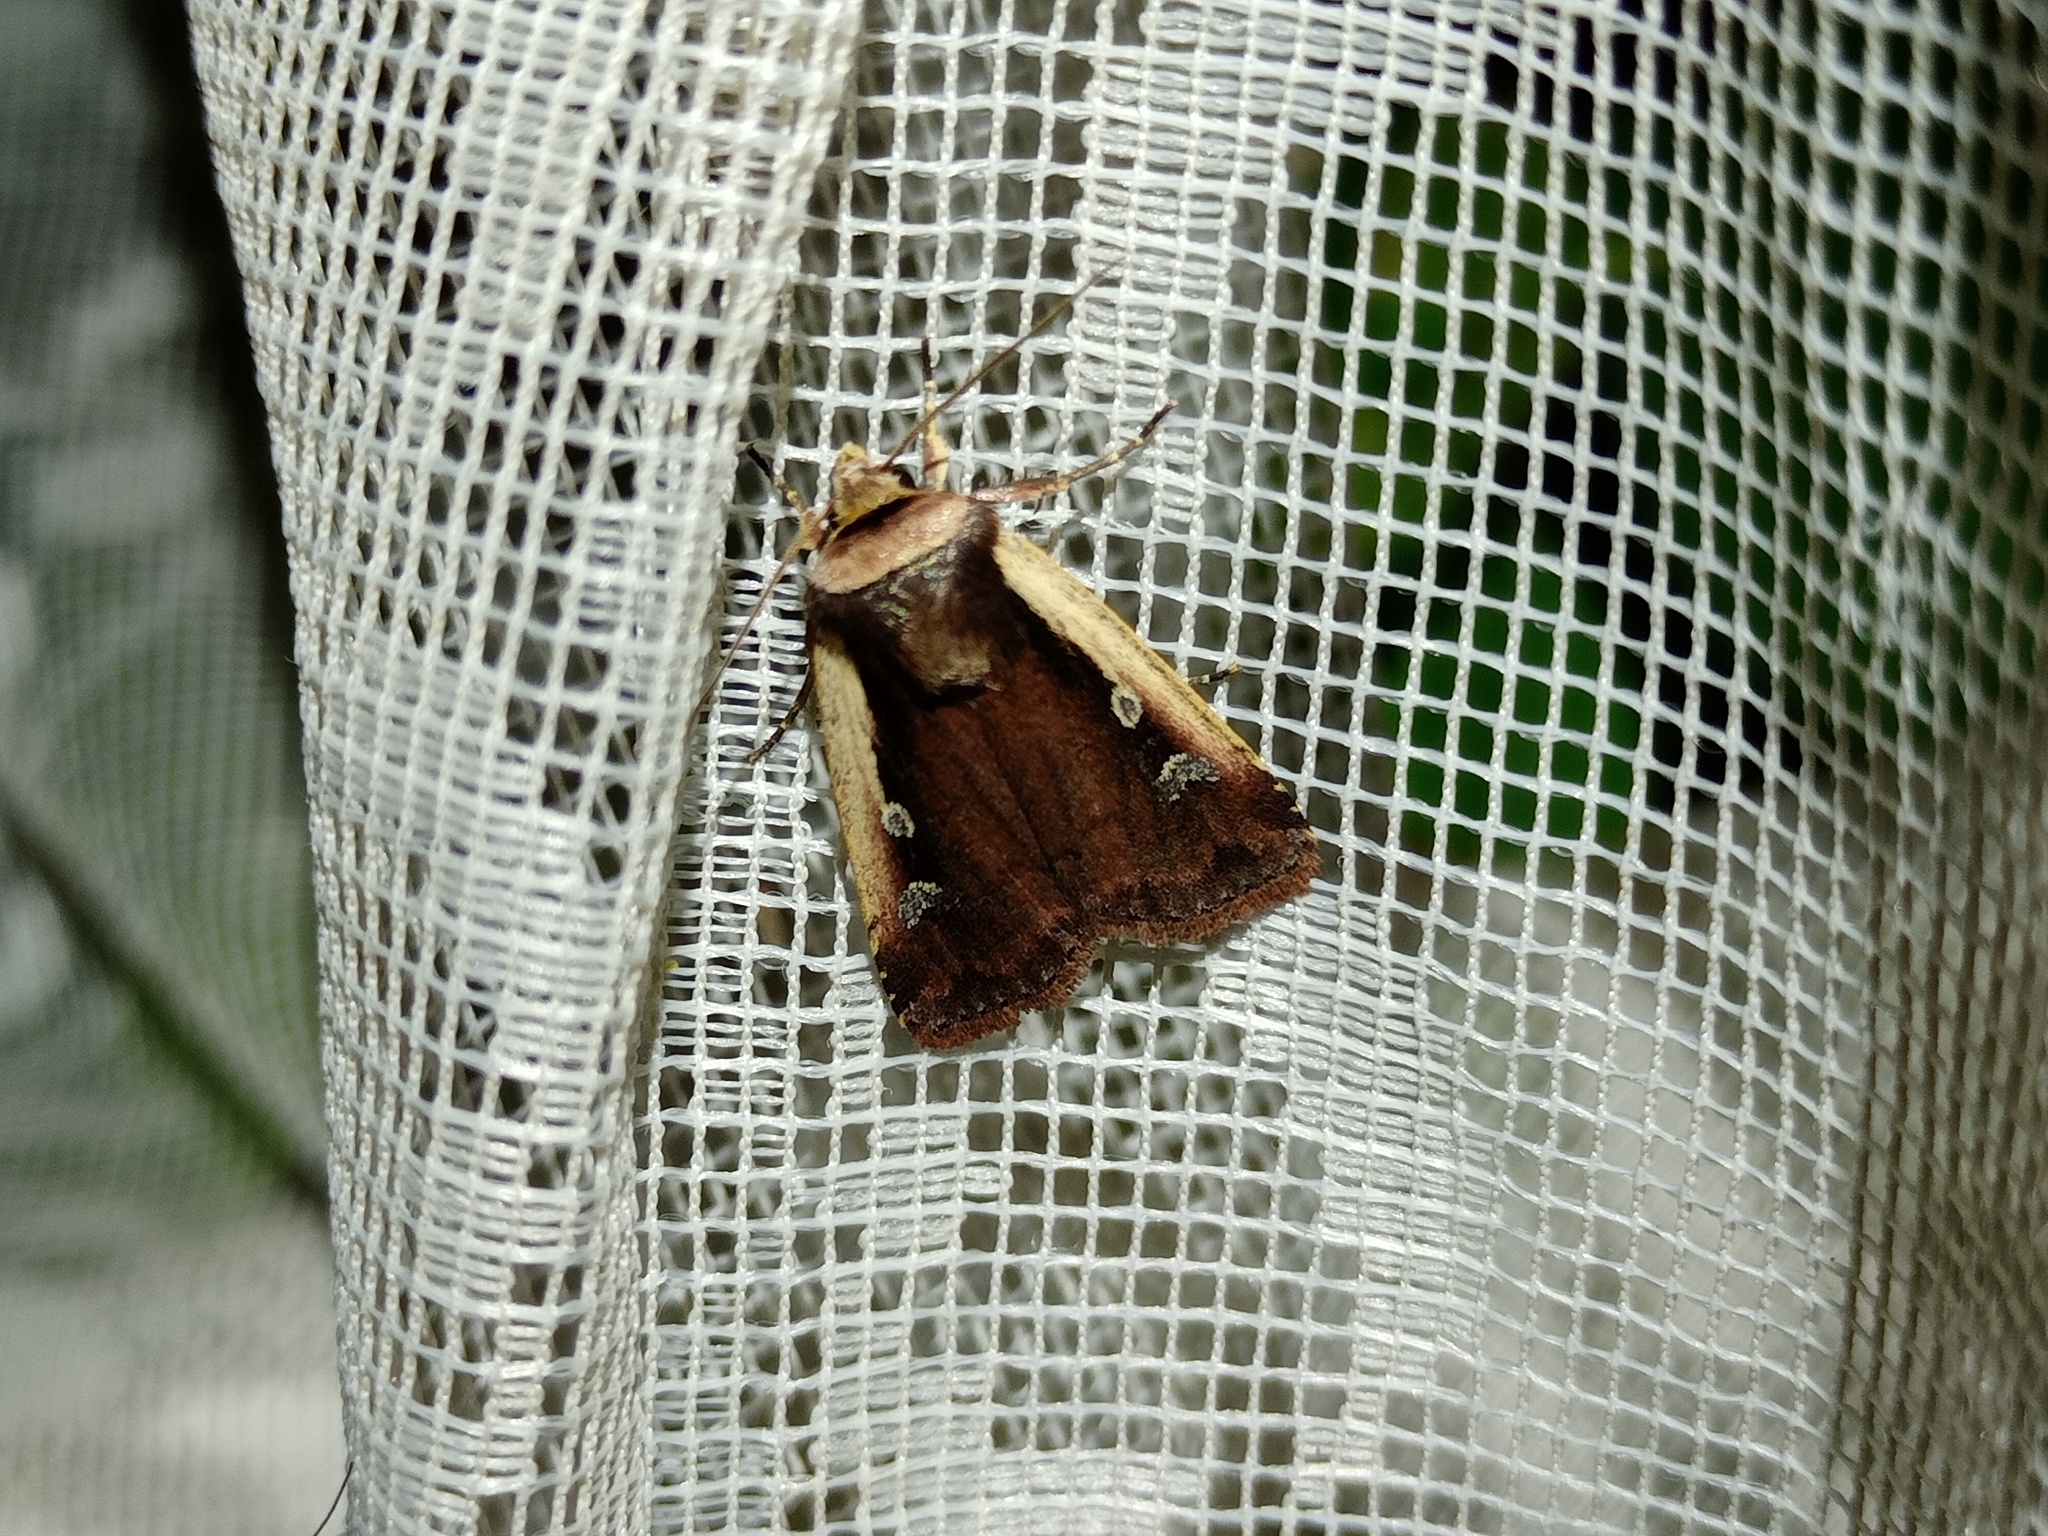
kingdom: Animalia
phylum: Arthropoda
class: Insecta
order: Lepidoptera
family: Noctuidae
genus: Ochropleura
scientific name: Ochropleura plecta
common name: Flame shoulder
